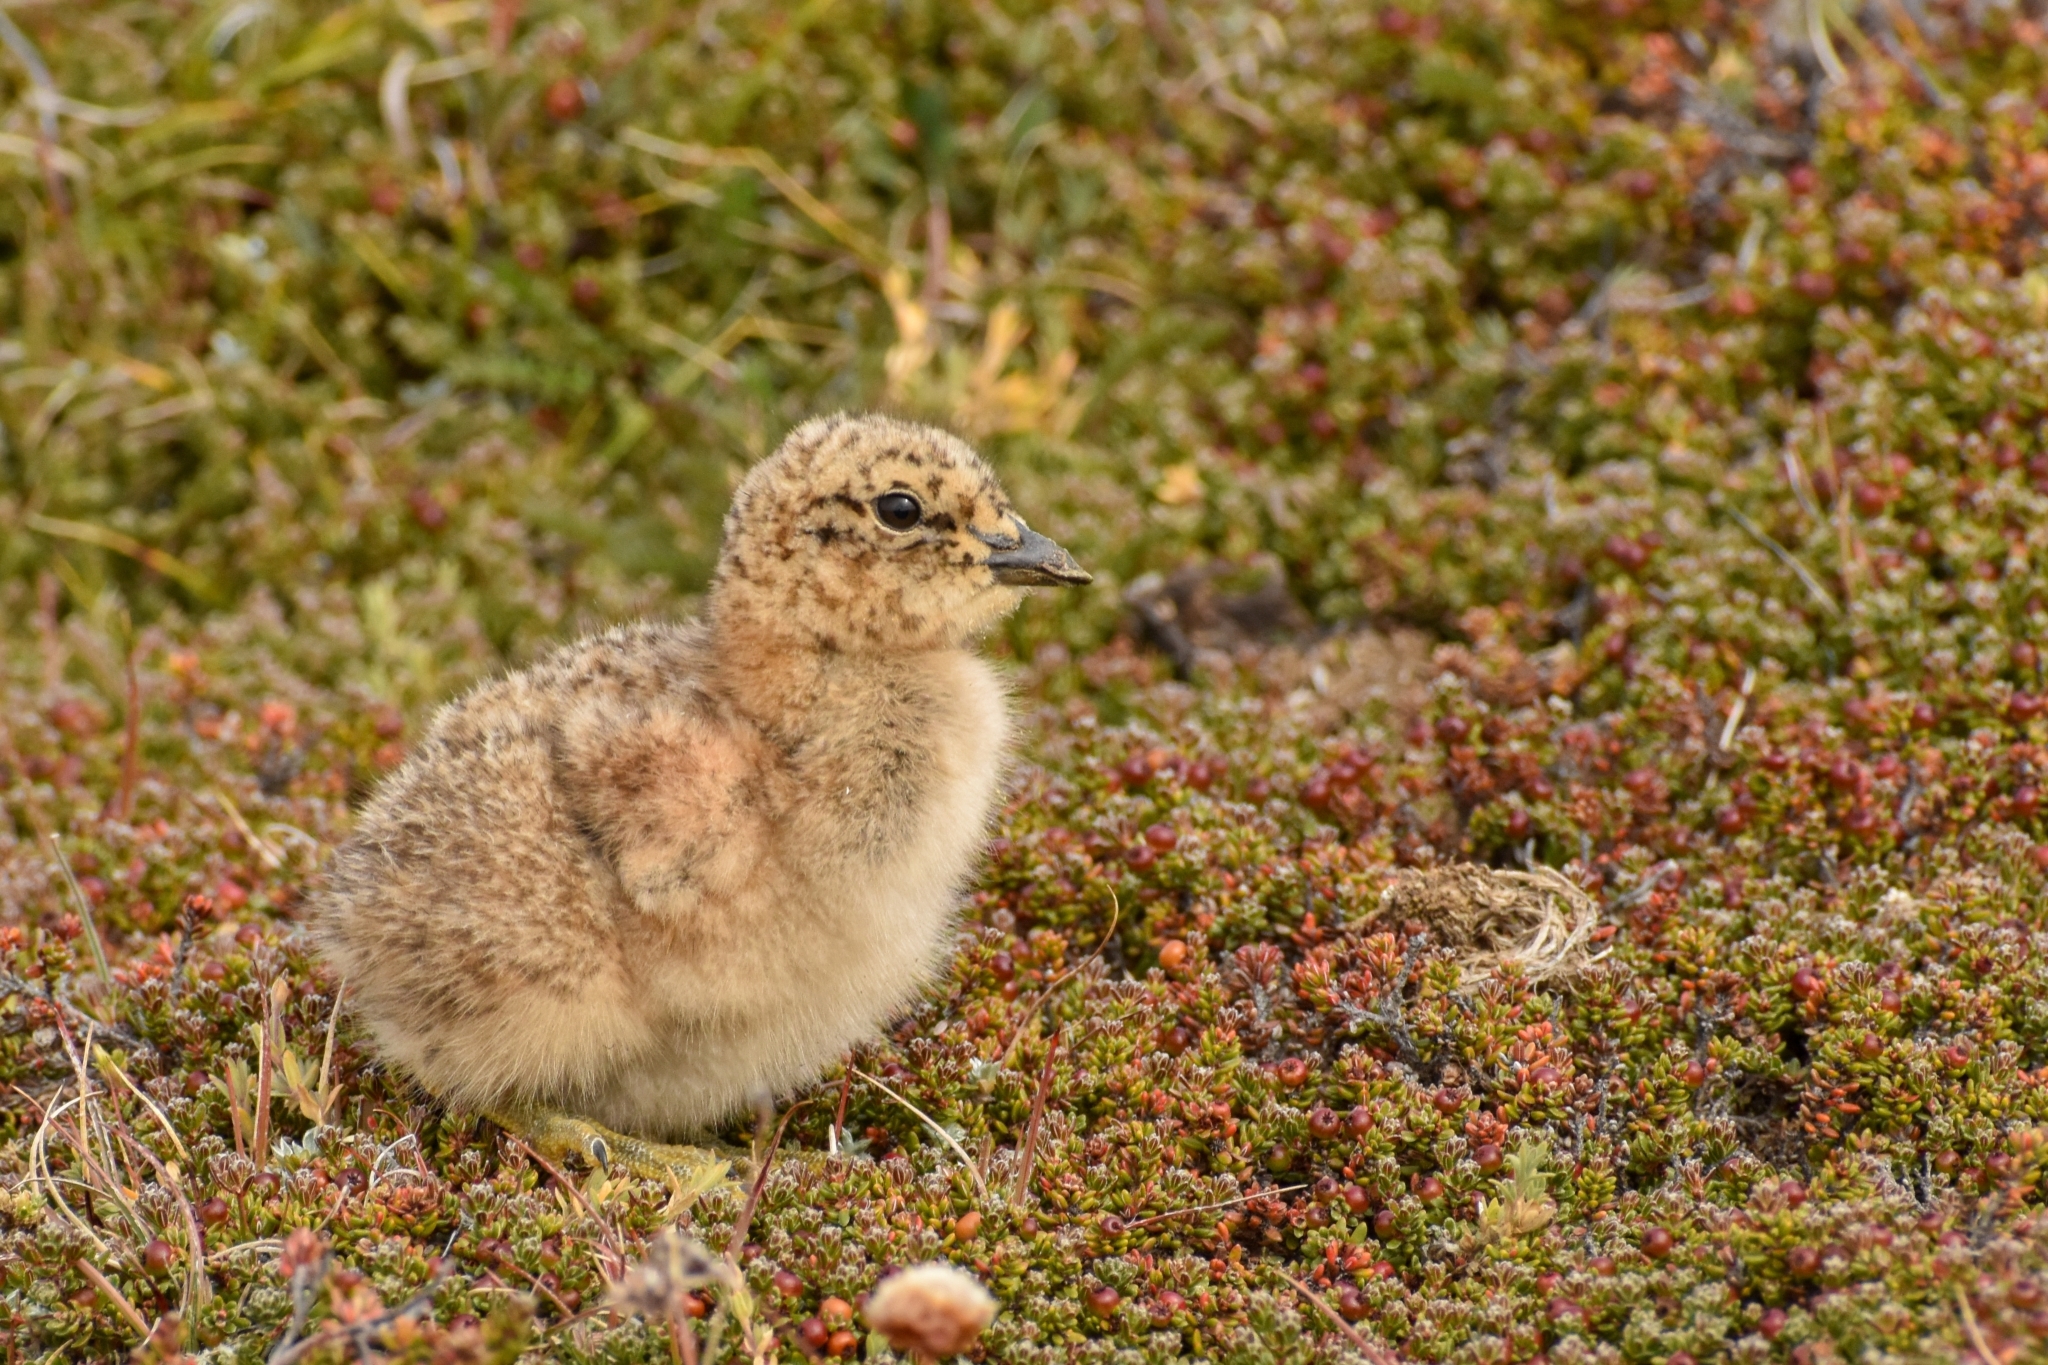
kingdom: Animalia
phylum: Chordata
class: Aves
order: Charadriiformes
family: Thinocoridae
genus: Attagis
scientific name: Attagis gayi
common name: Rufous-bellied seedsnipe
